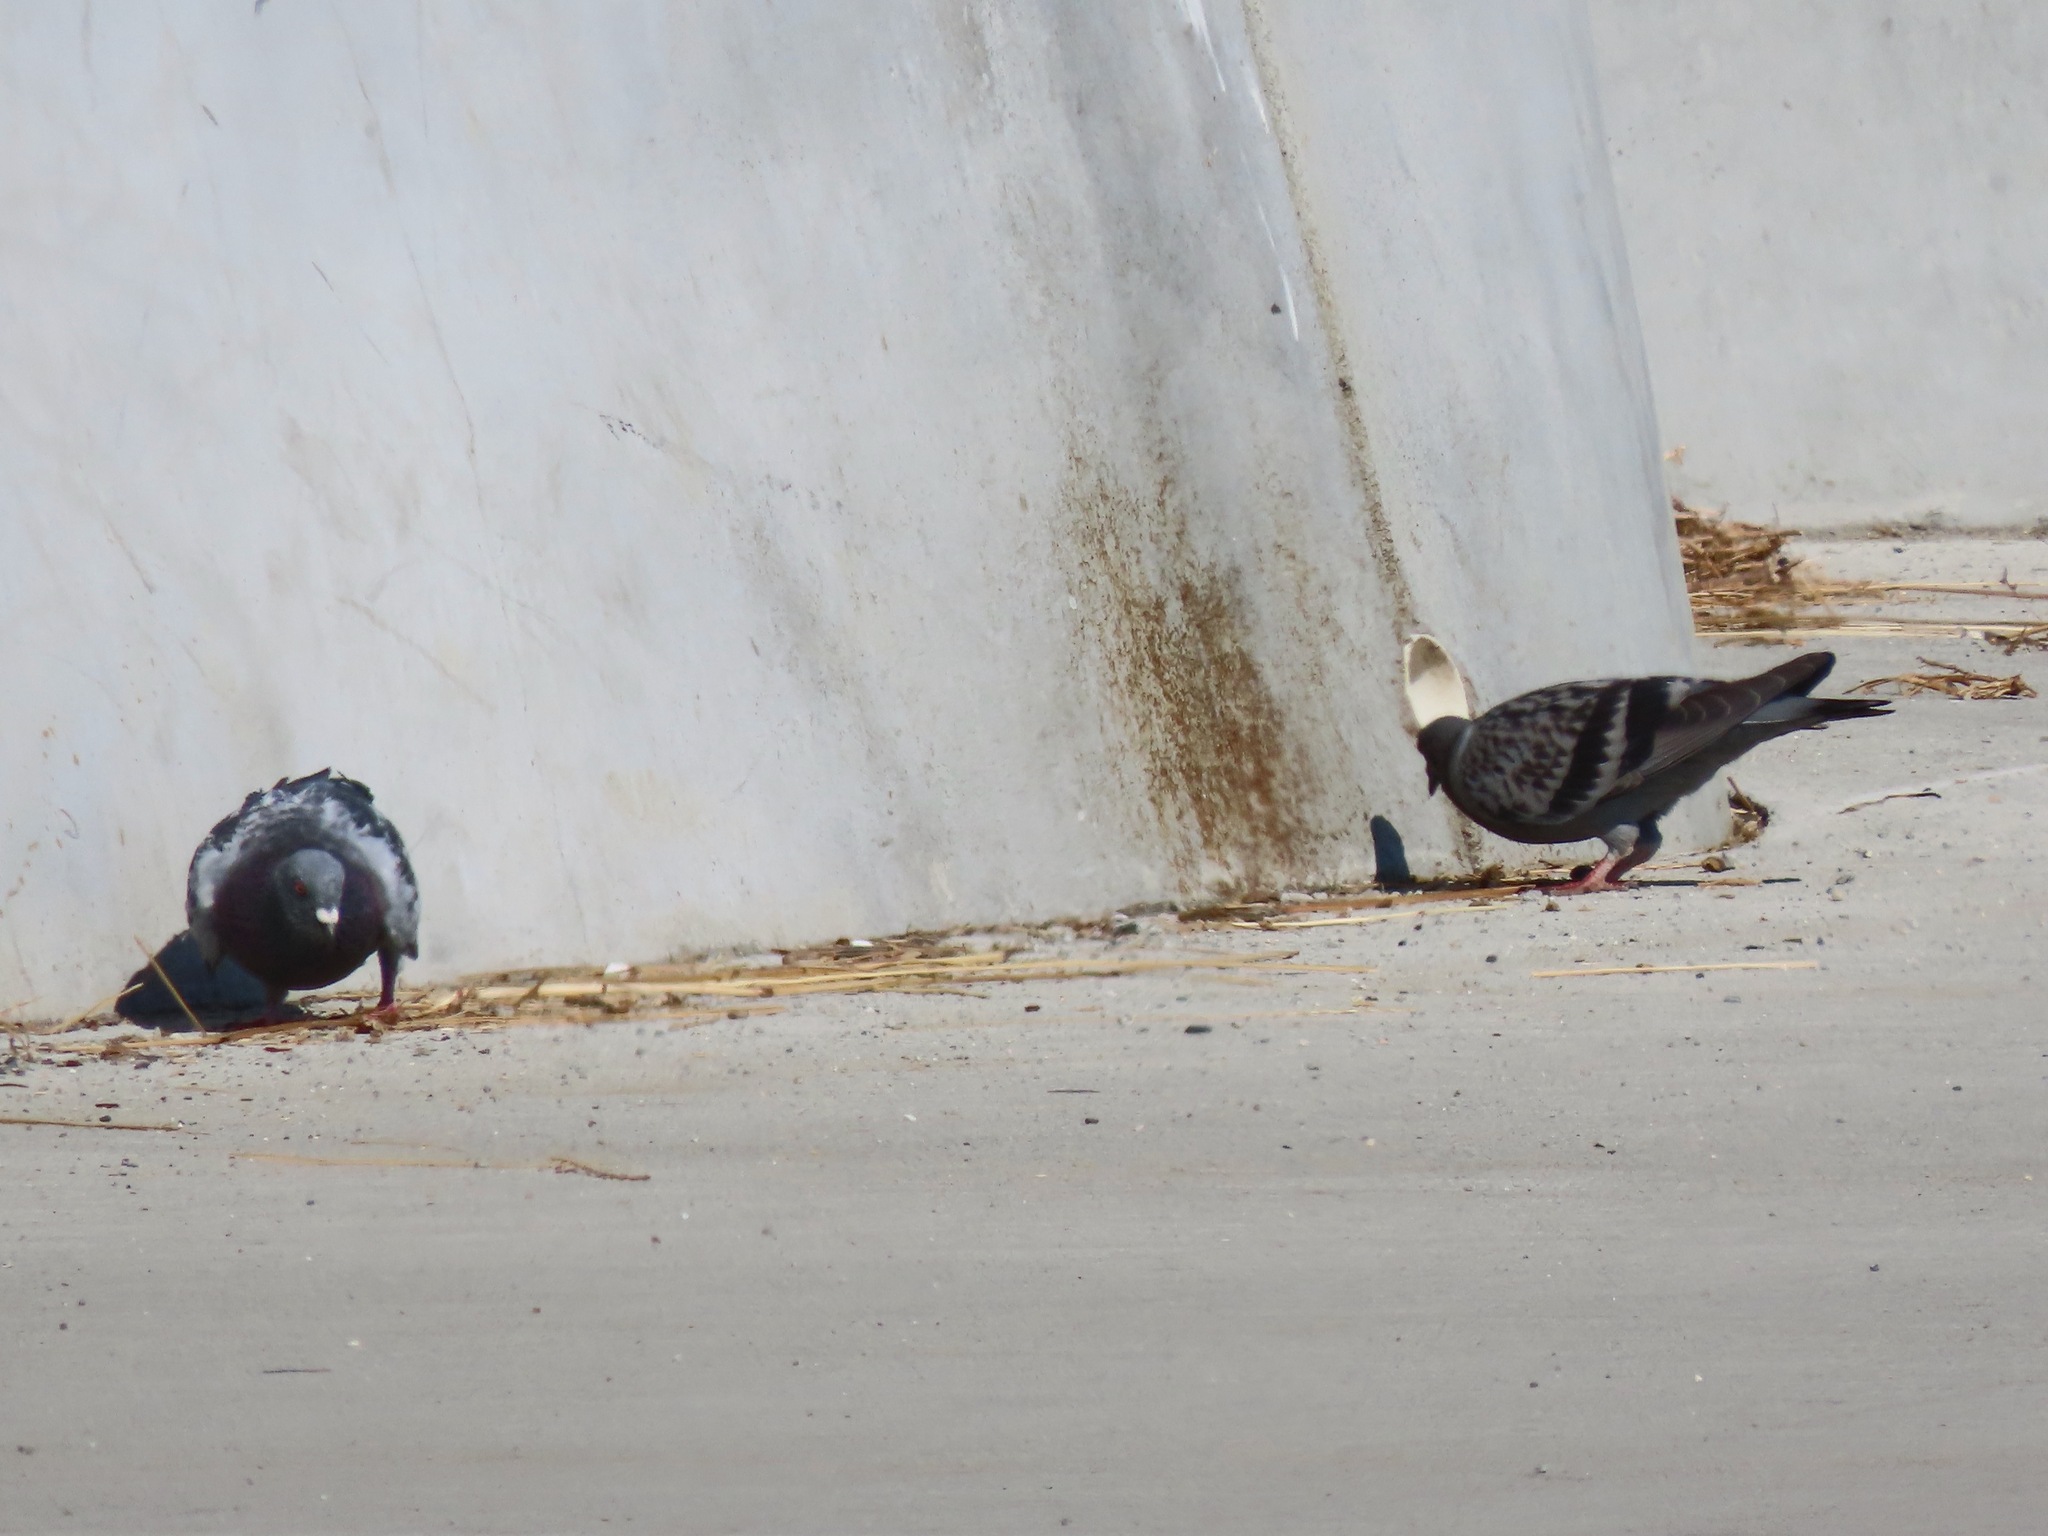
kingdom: Animalia
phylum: Chordata
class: Aves
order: Columbiformes
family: Columbidae
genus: Columba
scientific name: Columba livia
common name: Rock pigeon
